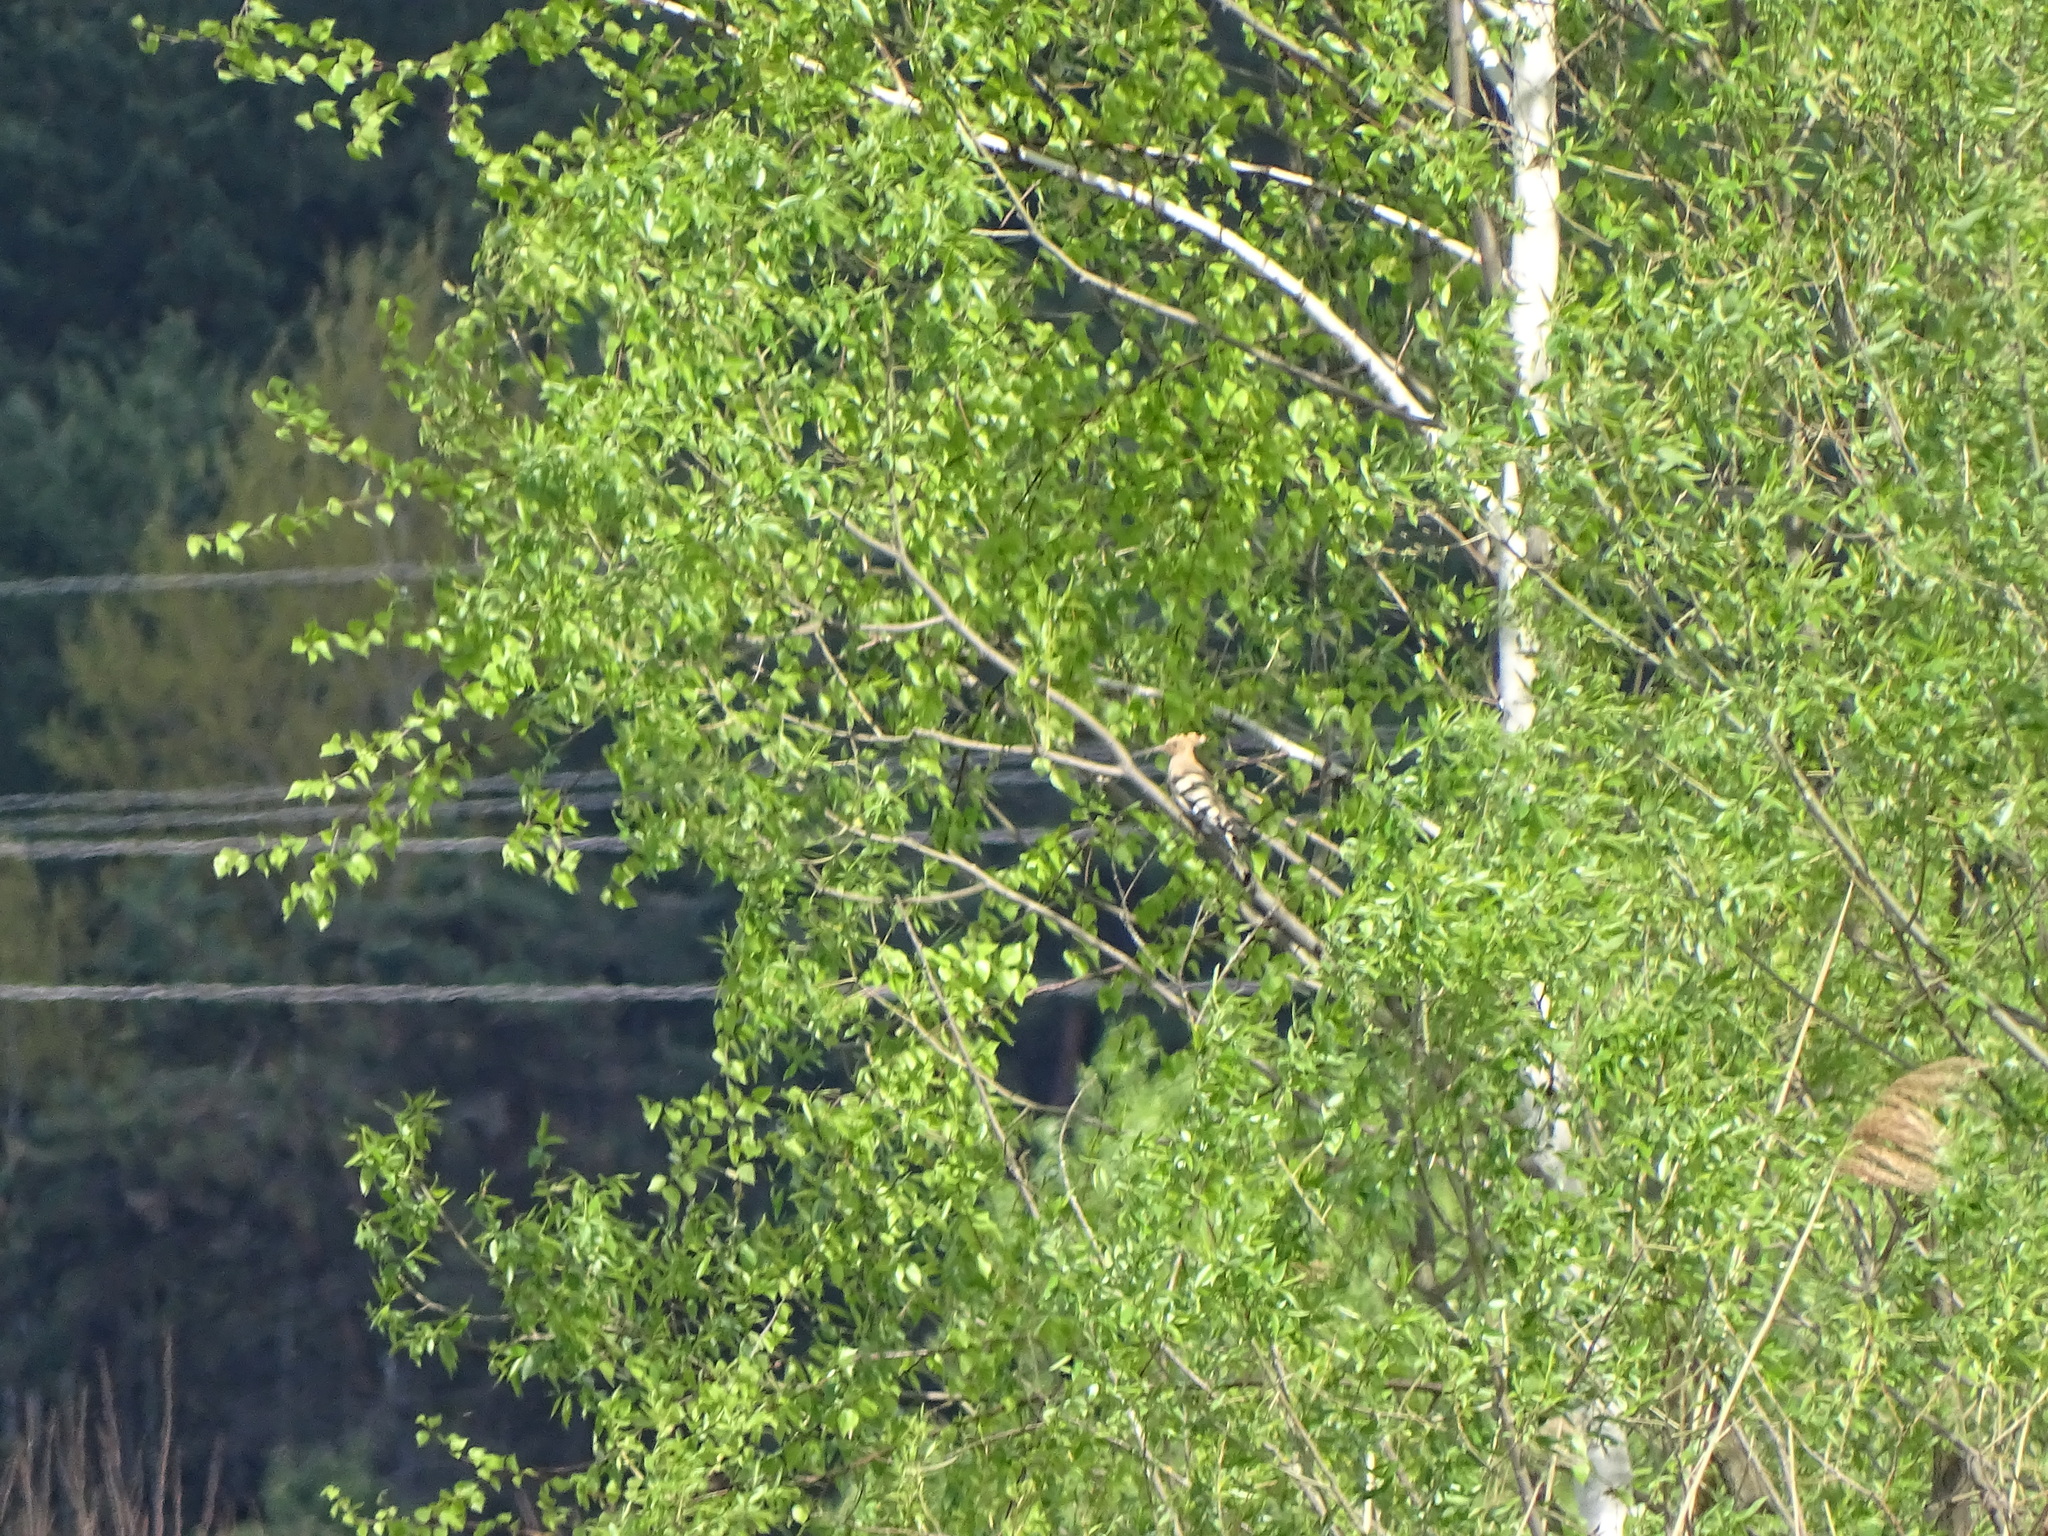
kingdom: Animalia
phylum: Chordata
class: Aves
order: Bucerotiformes
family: Upupidae
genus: Upupa
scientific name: Upupa epops
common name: Eurasian hoopoe
